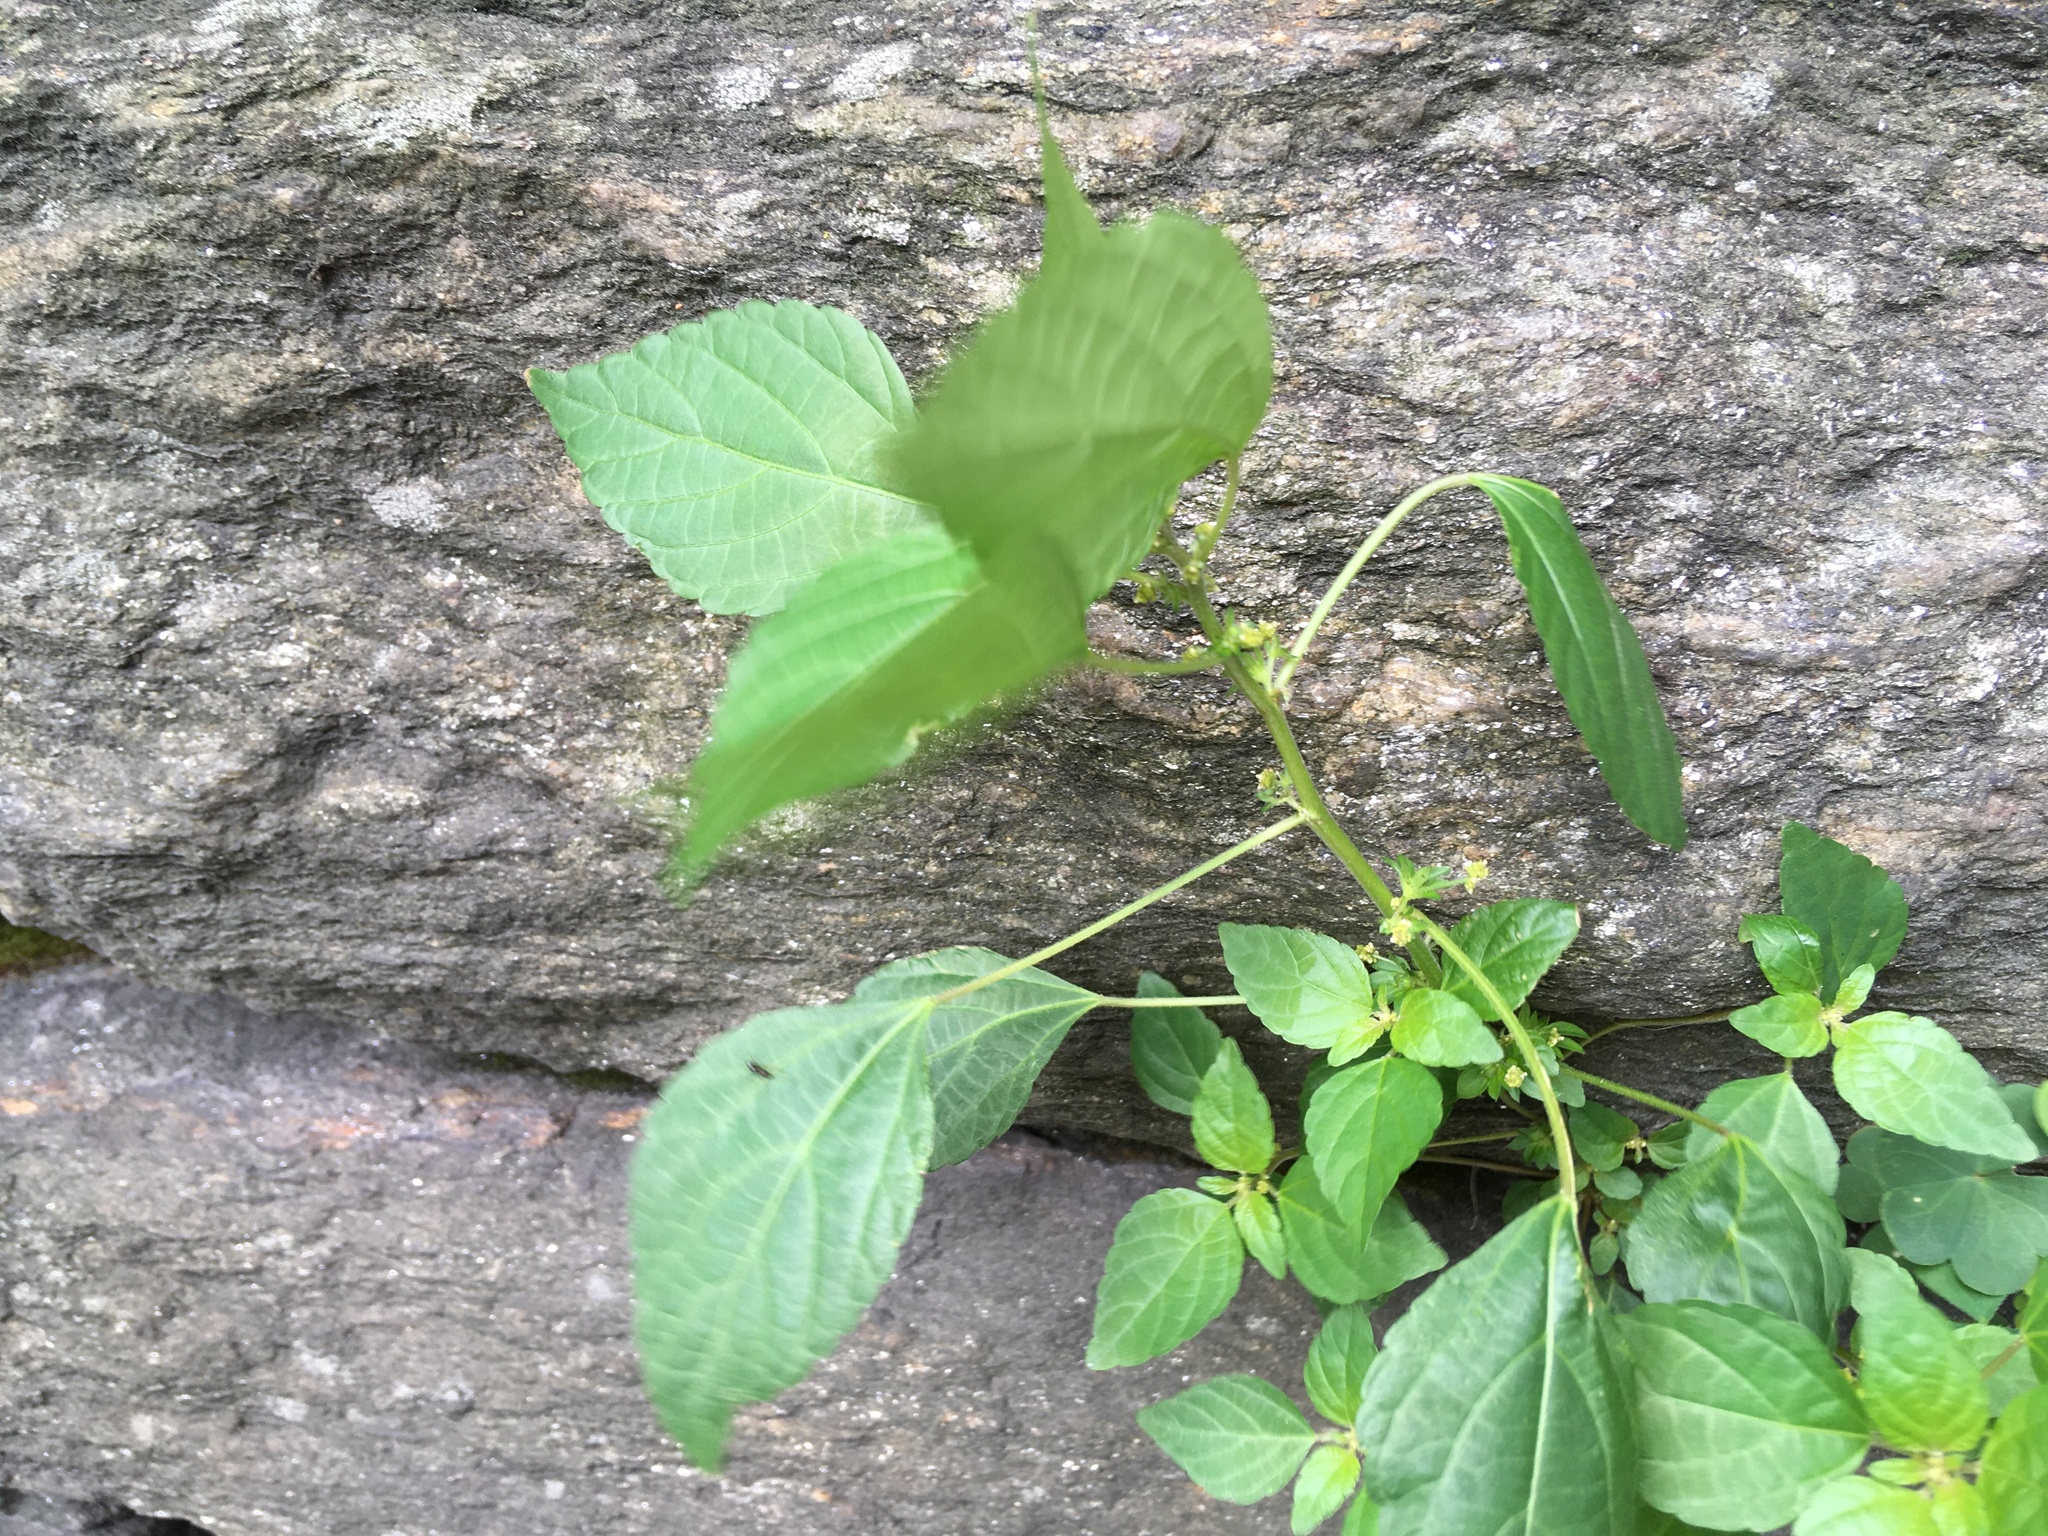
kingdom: Plantae
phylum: Tracheophyta
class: Magnoliopsida
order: Malpighiales
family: Euphorbiaceae
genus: Acalypha
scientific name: Acalypha rhomboidea
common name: Rhombic copperleaf
